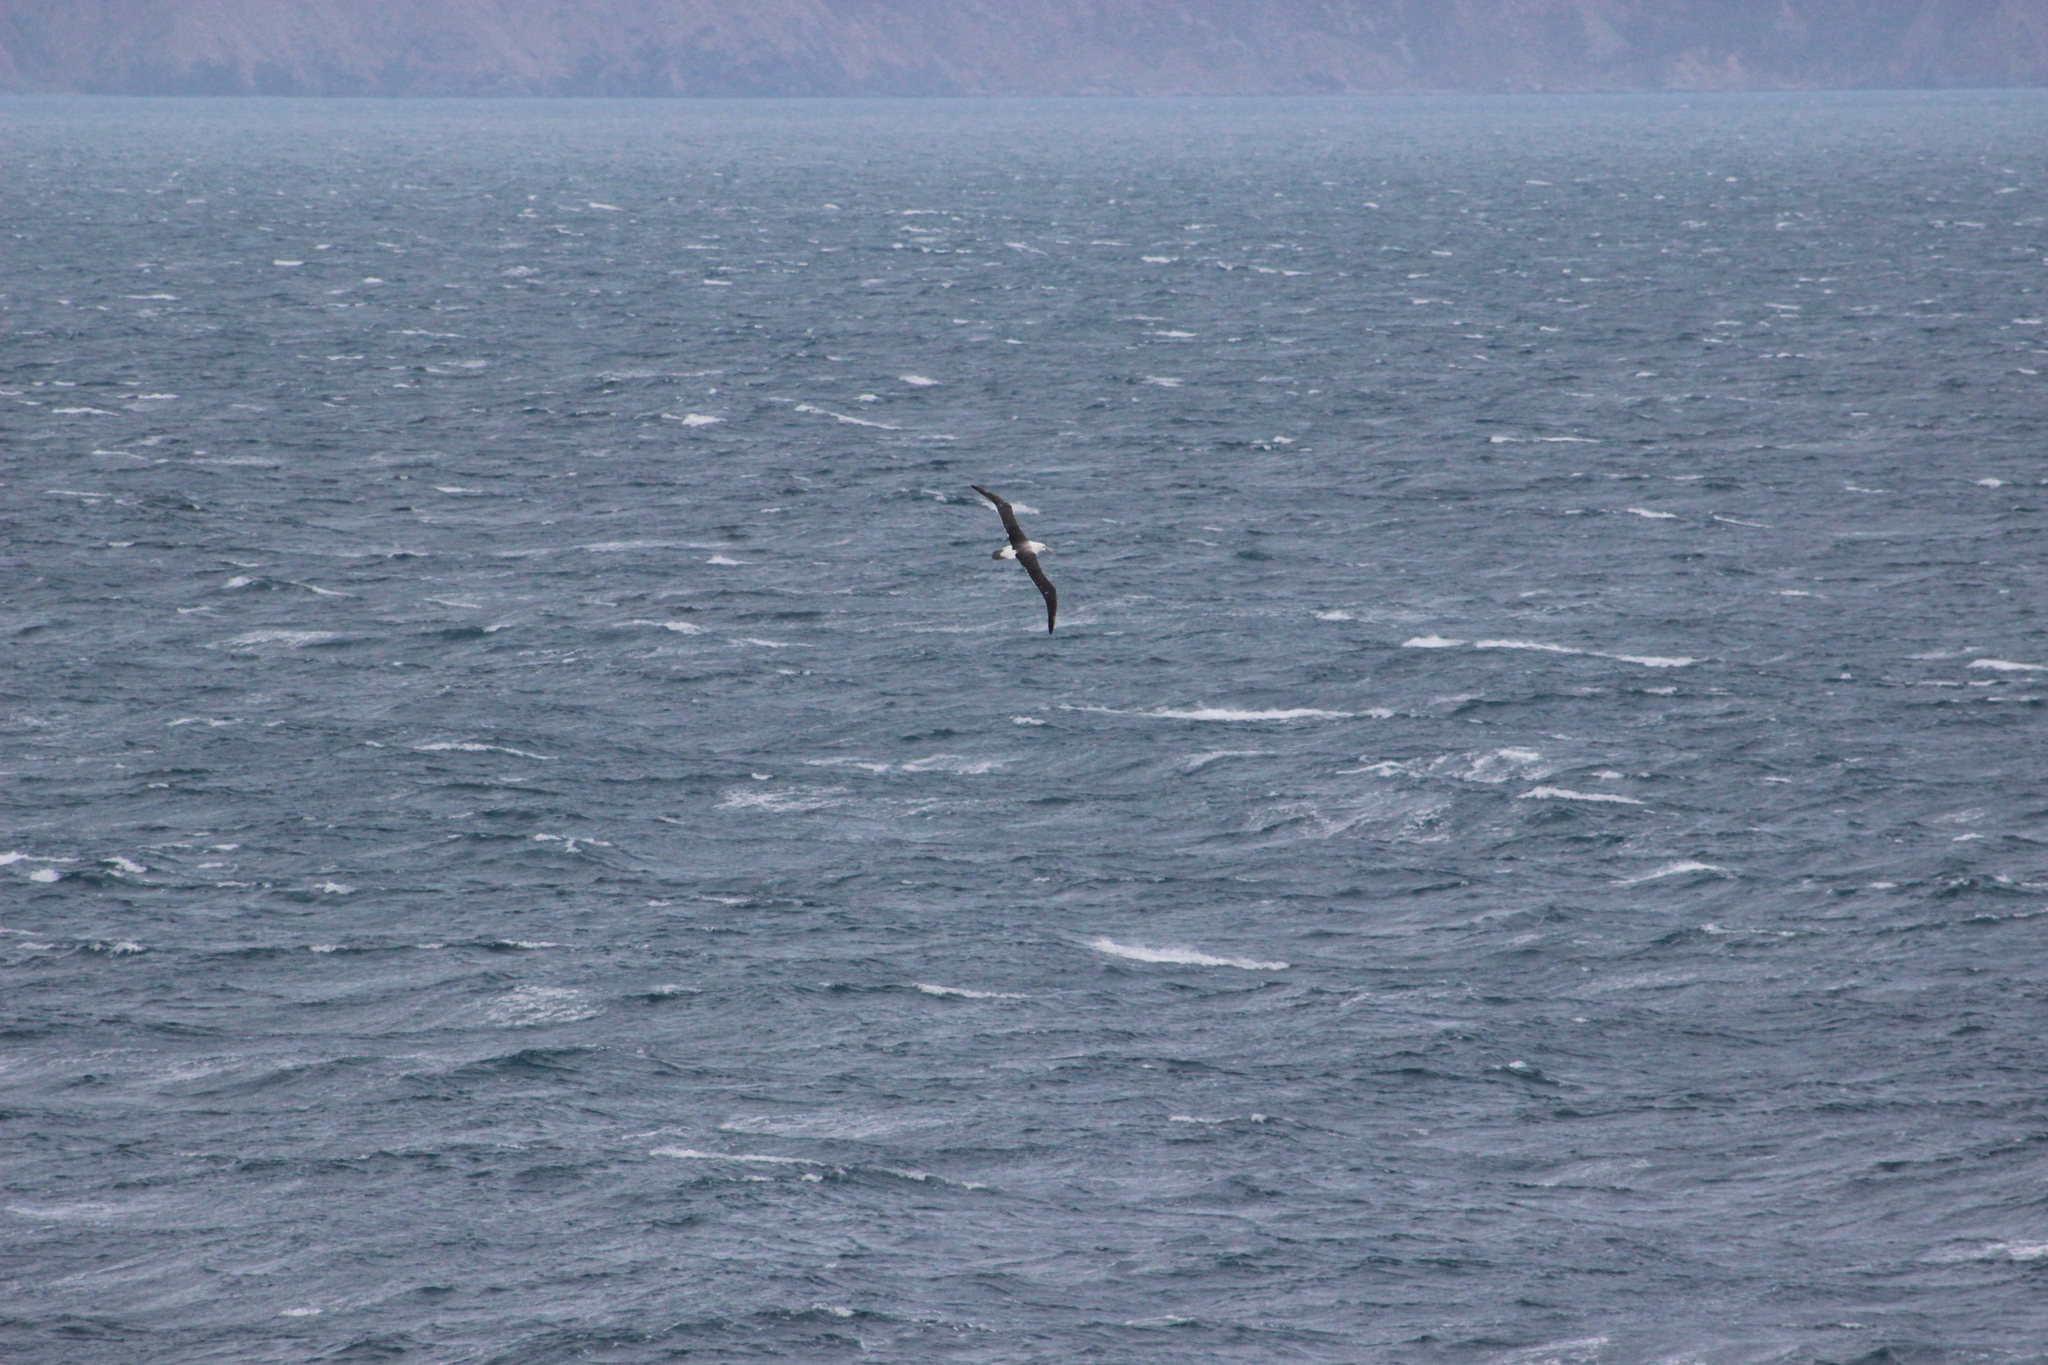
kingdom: Animalia
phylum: Chordata
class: Aves
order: Procellariiformes
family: Diomedeidae
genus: Thalassarche
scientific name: Thalassarche cauta
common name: Shy albatross
